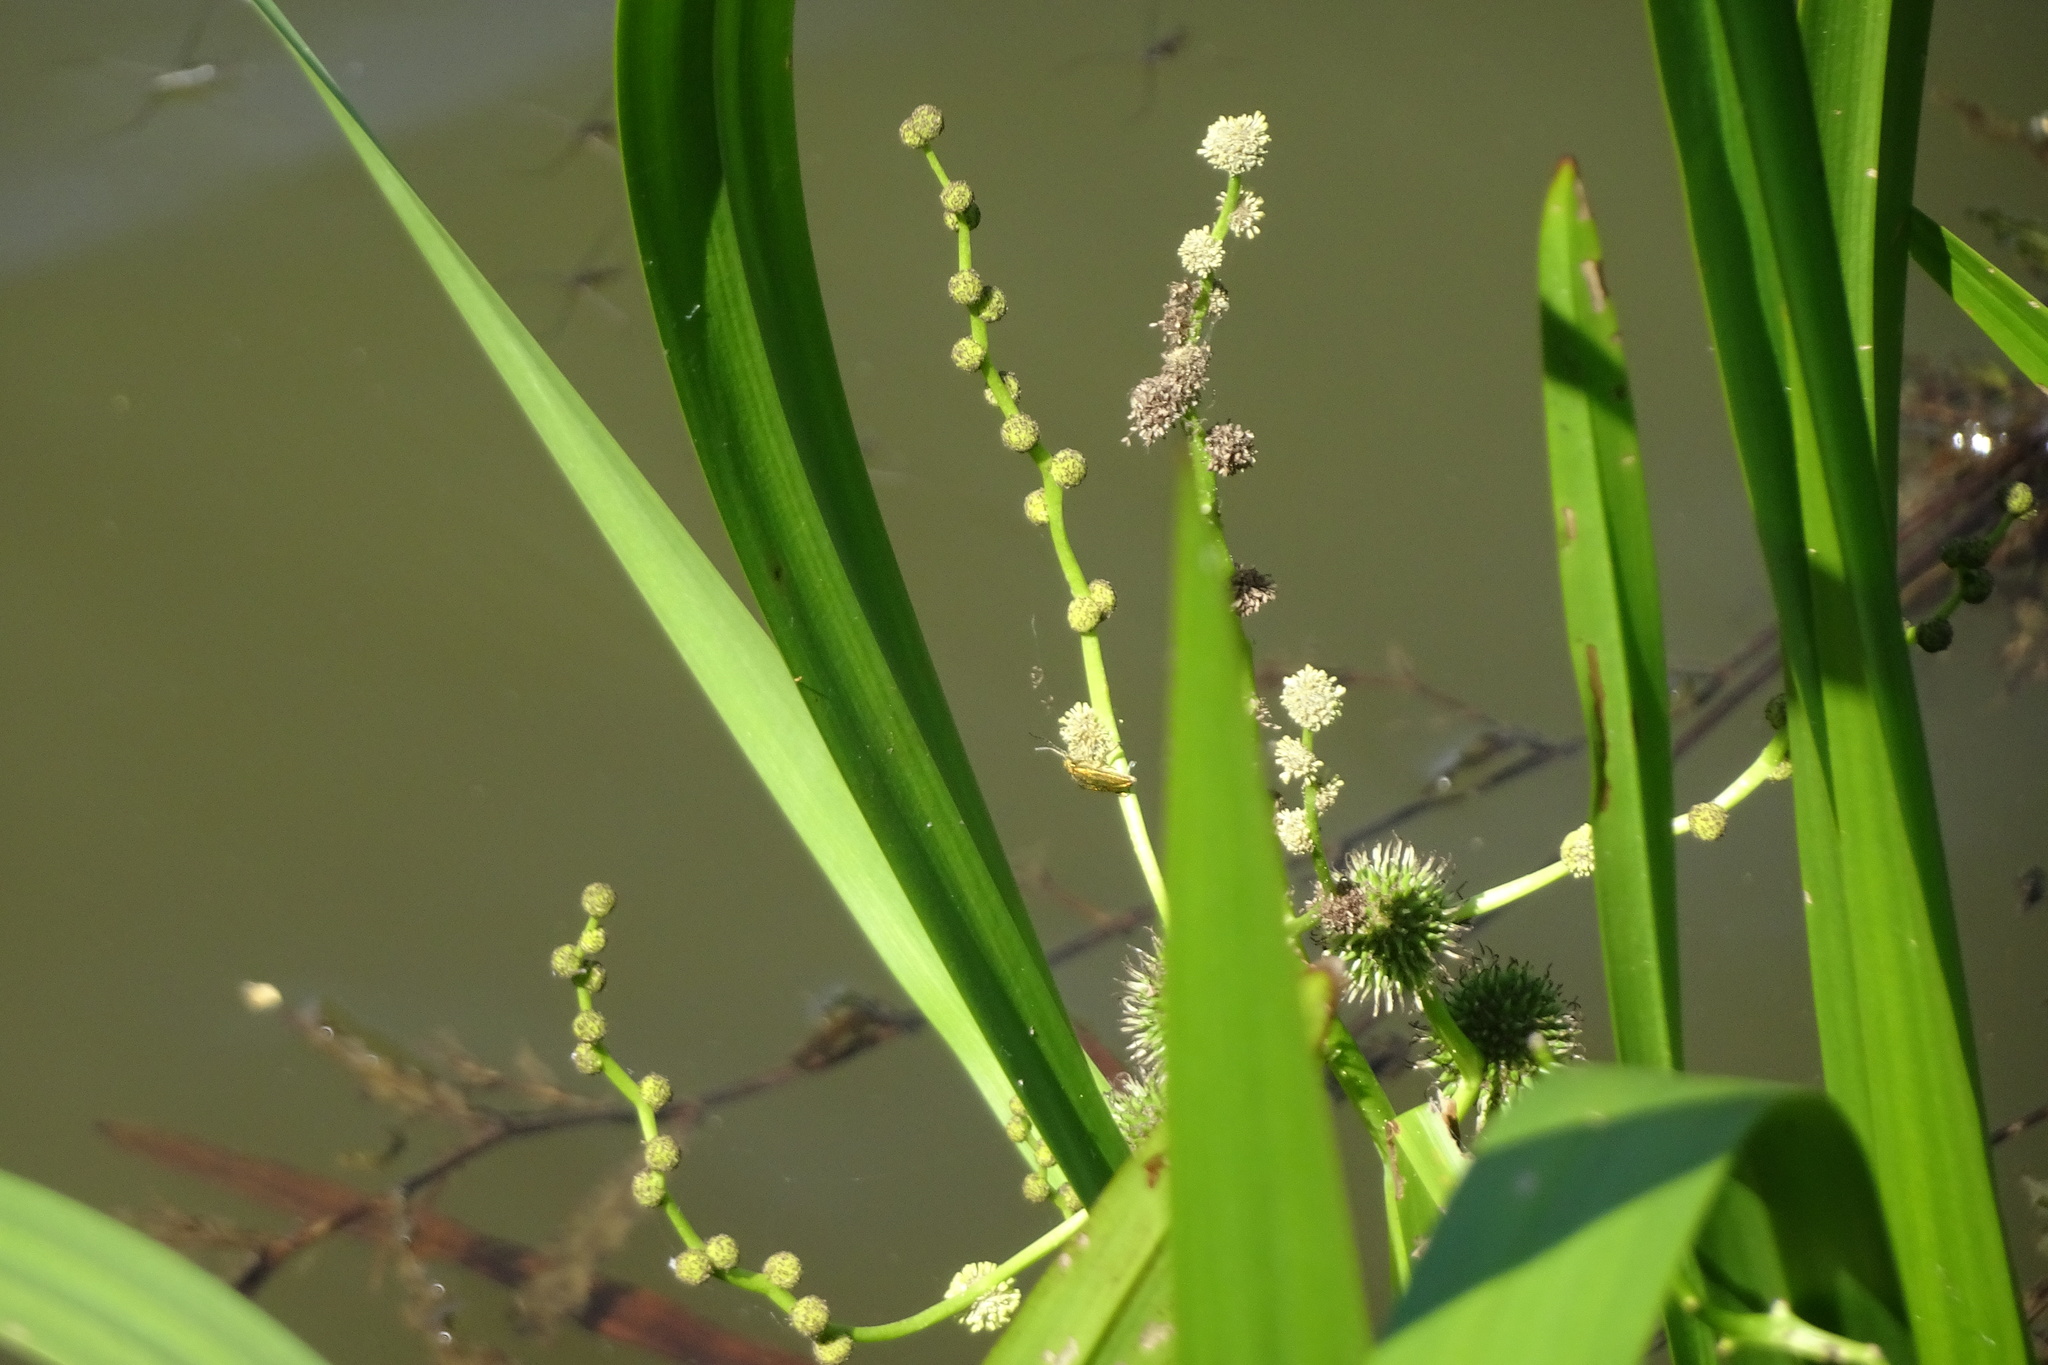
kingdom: Plantae
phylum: Tracheophyta
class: Liliopsida
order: Poales
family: Typhaceae
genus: Sparganium
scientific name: Sparganium erectum
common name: Branched bur-reed
